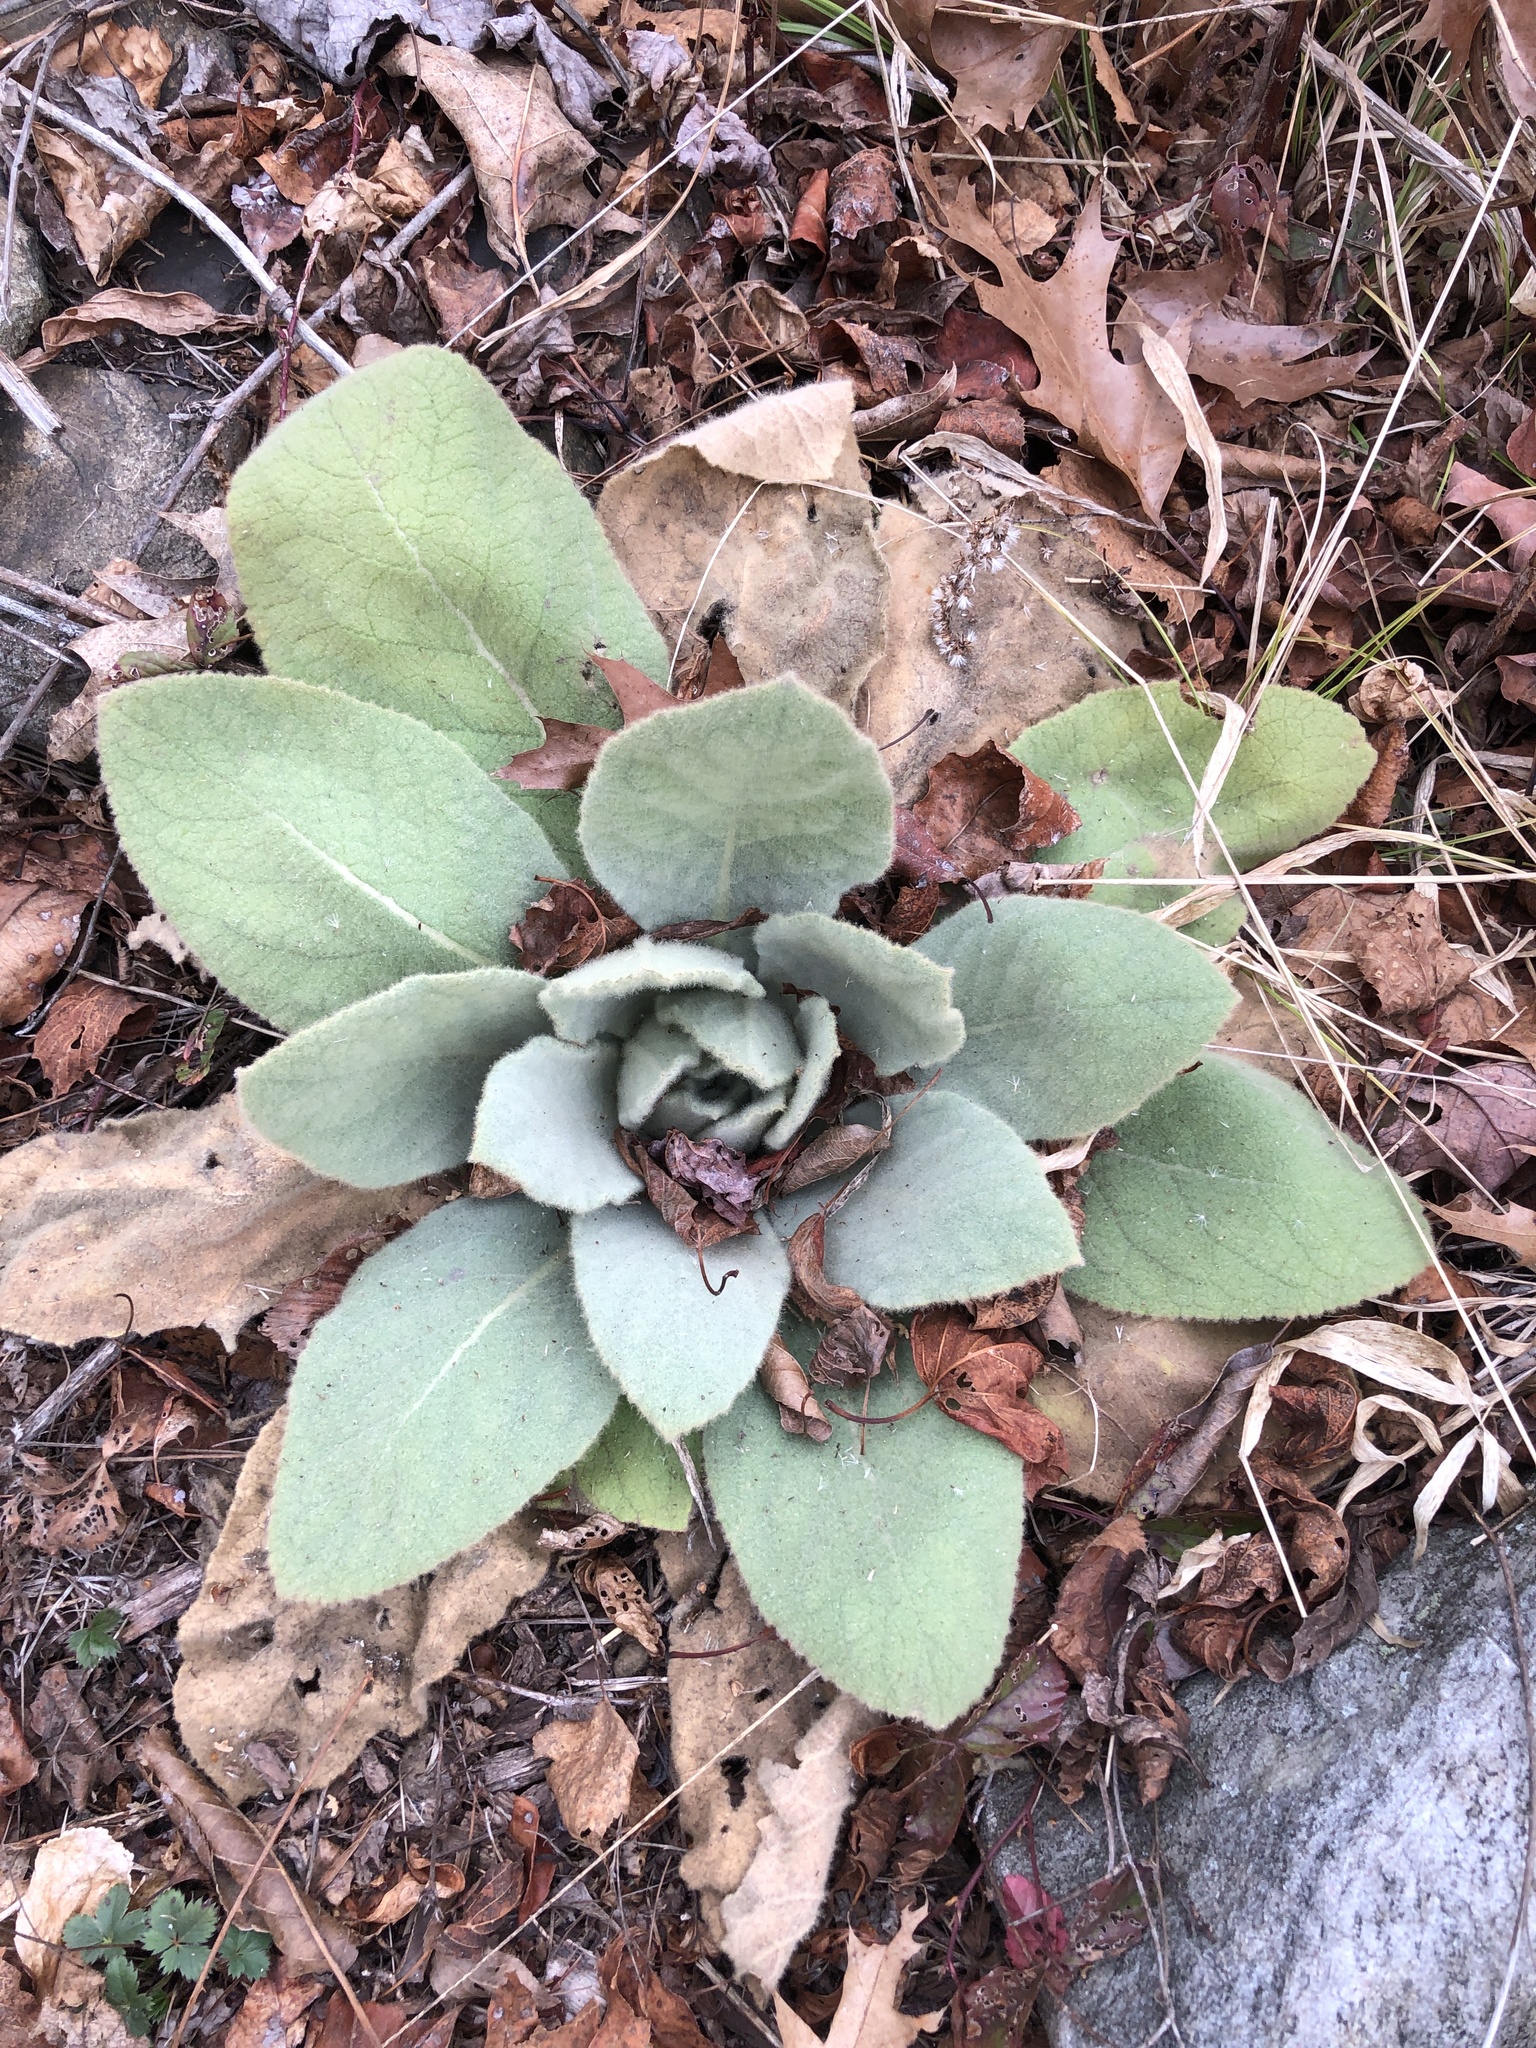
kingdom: Plantae
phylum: Tracheophyta
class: Magnoliopsida
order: Lamiales
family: Scrophulariaceae
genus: Verbascum
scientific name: Verbascum thapsus
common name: Common mullein
